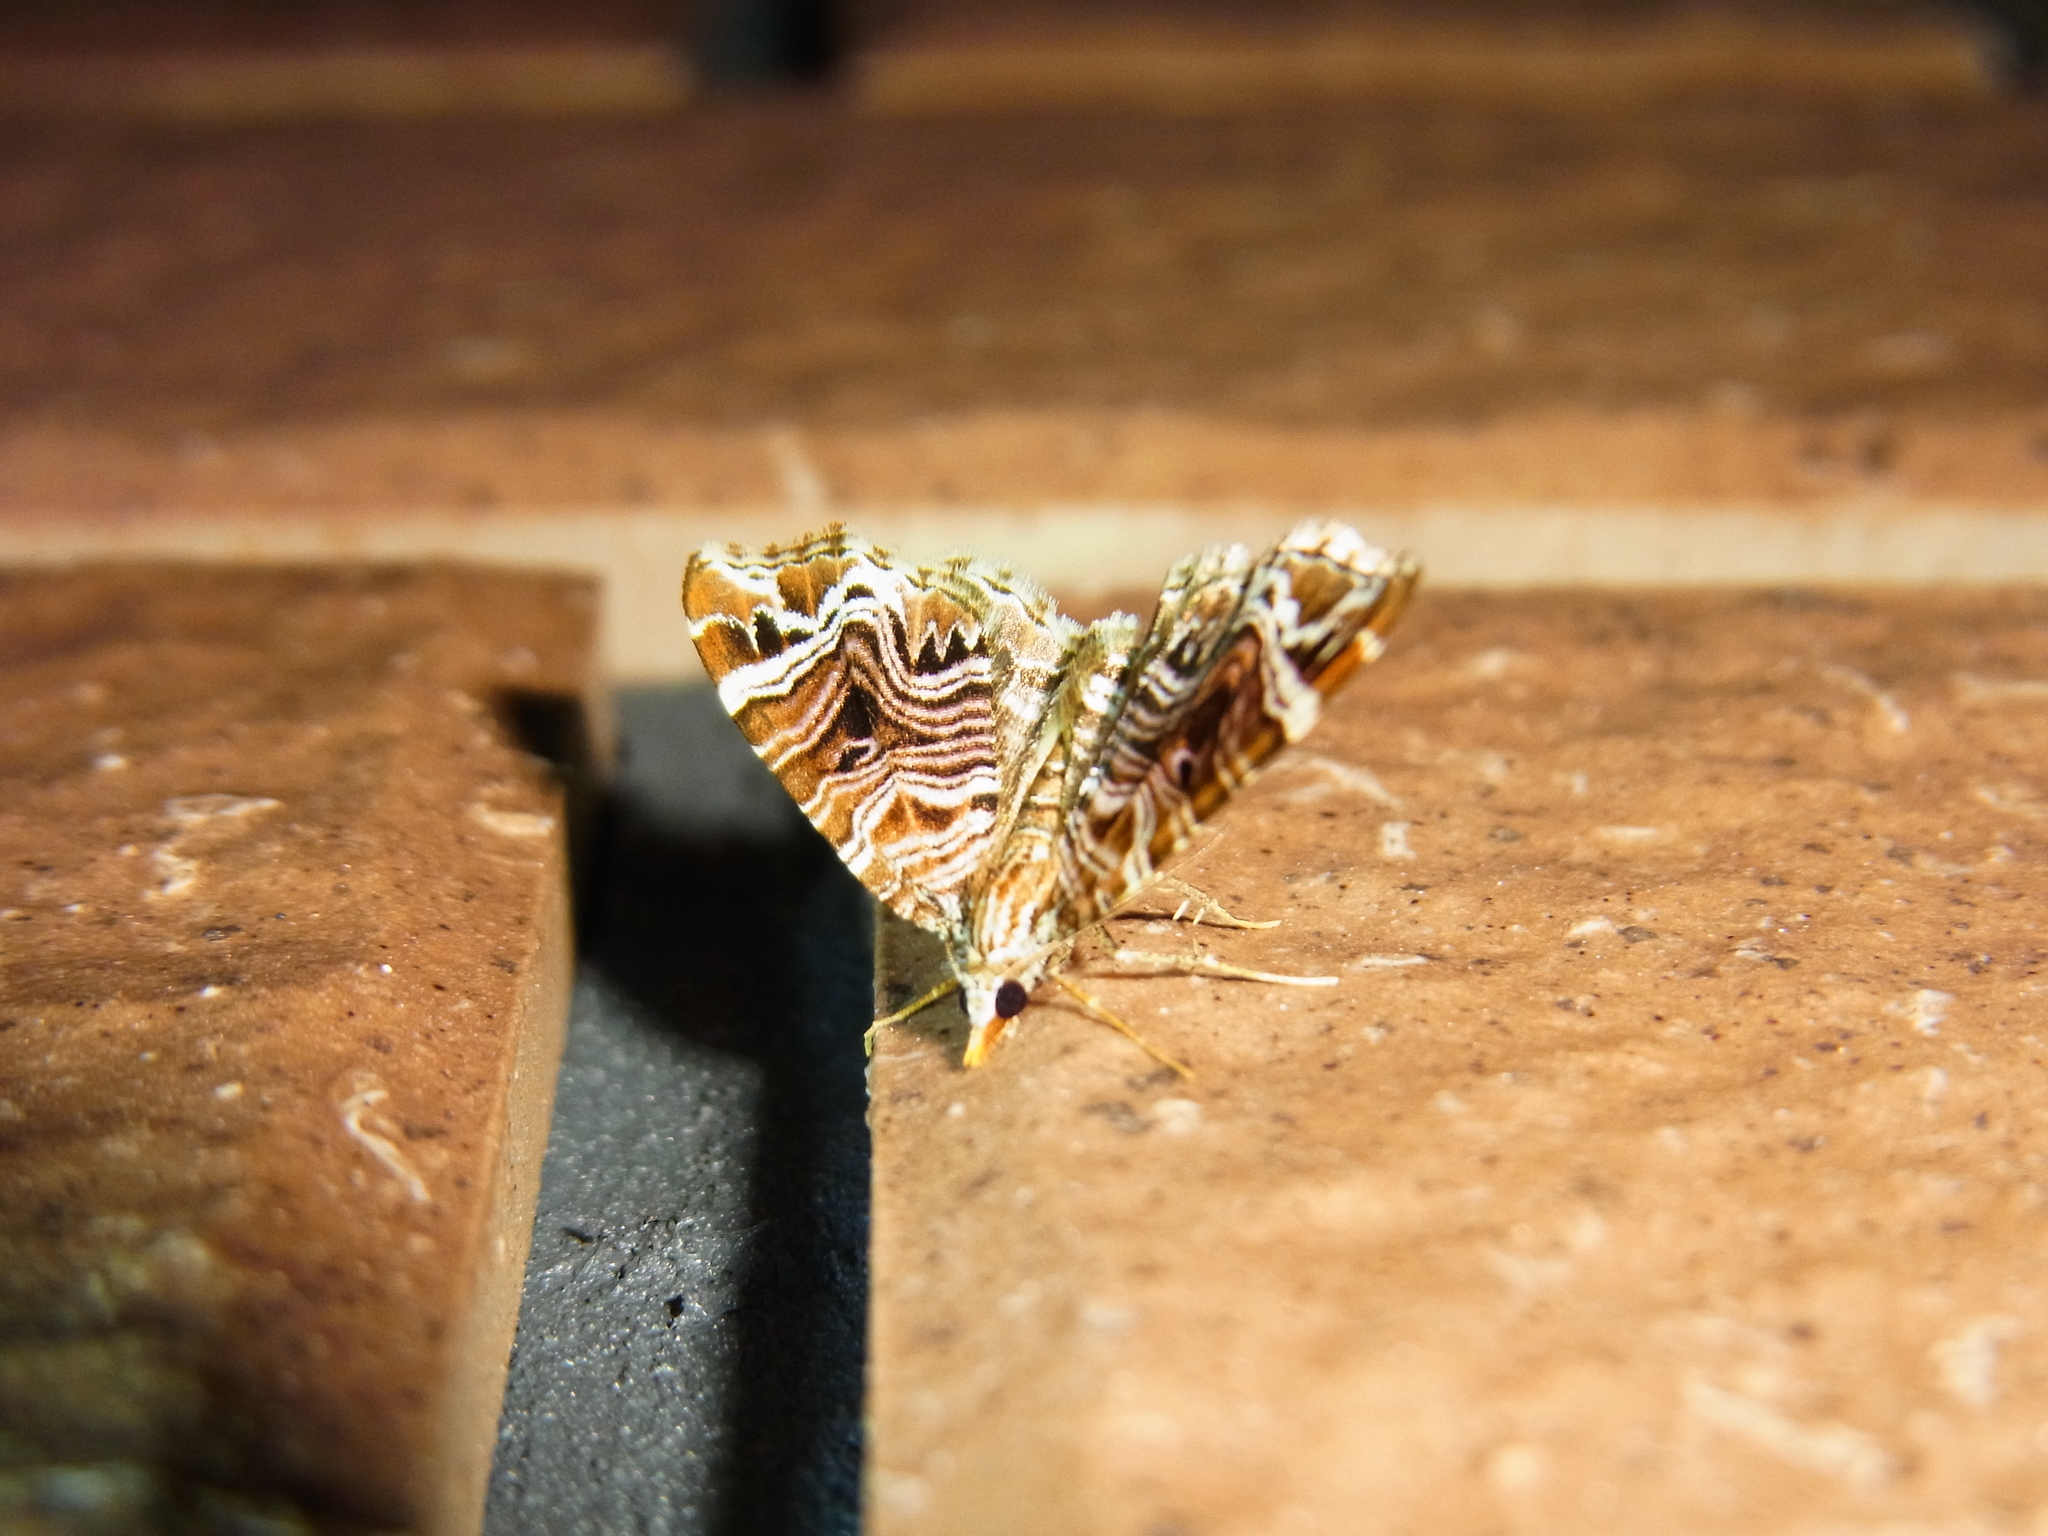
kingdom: Animalia
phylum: Arthropoda
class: Insecta
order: Lepidoptera
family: Geometridae
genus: Microlygris
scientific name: Microlygris multistriata
